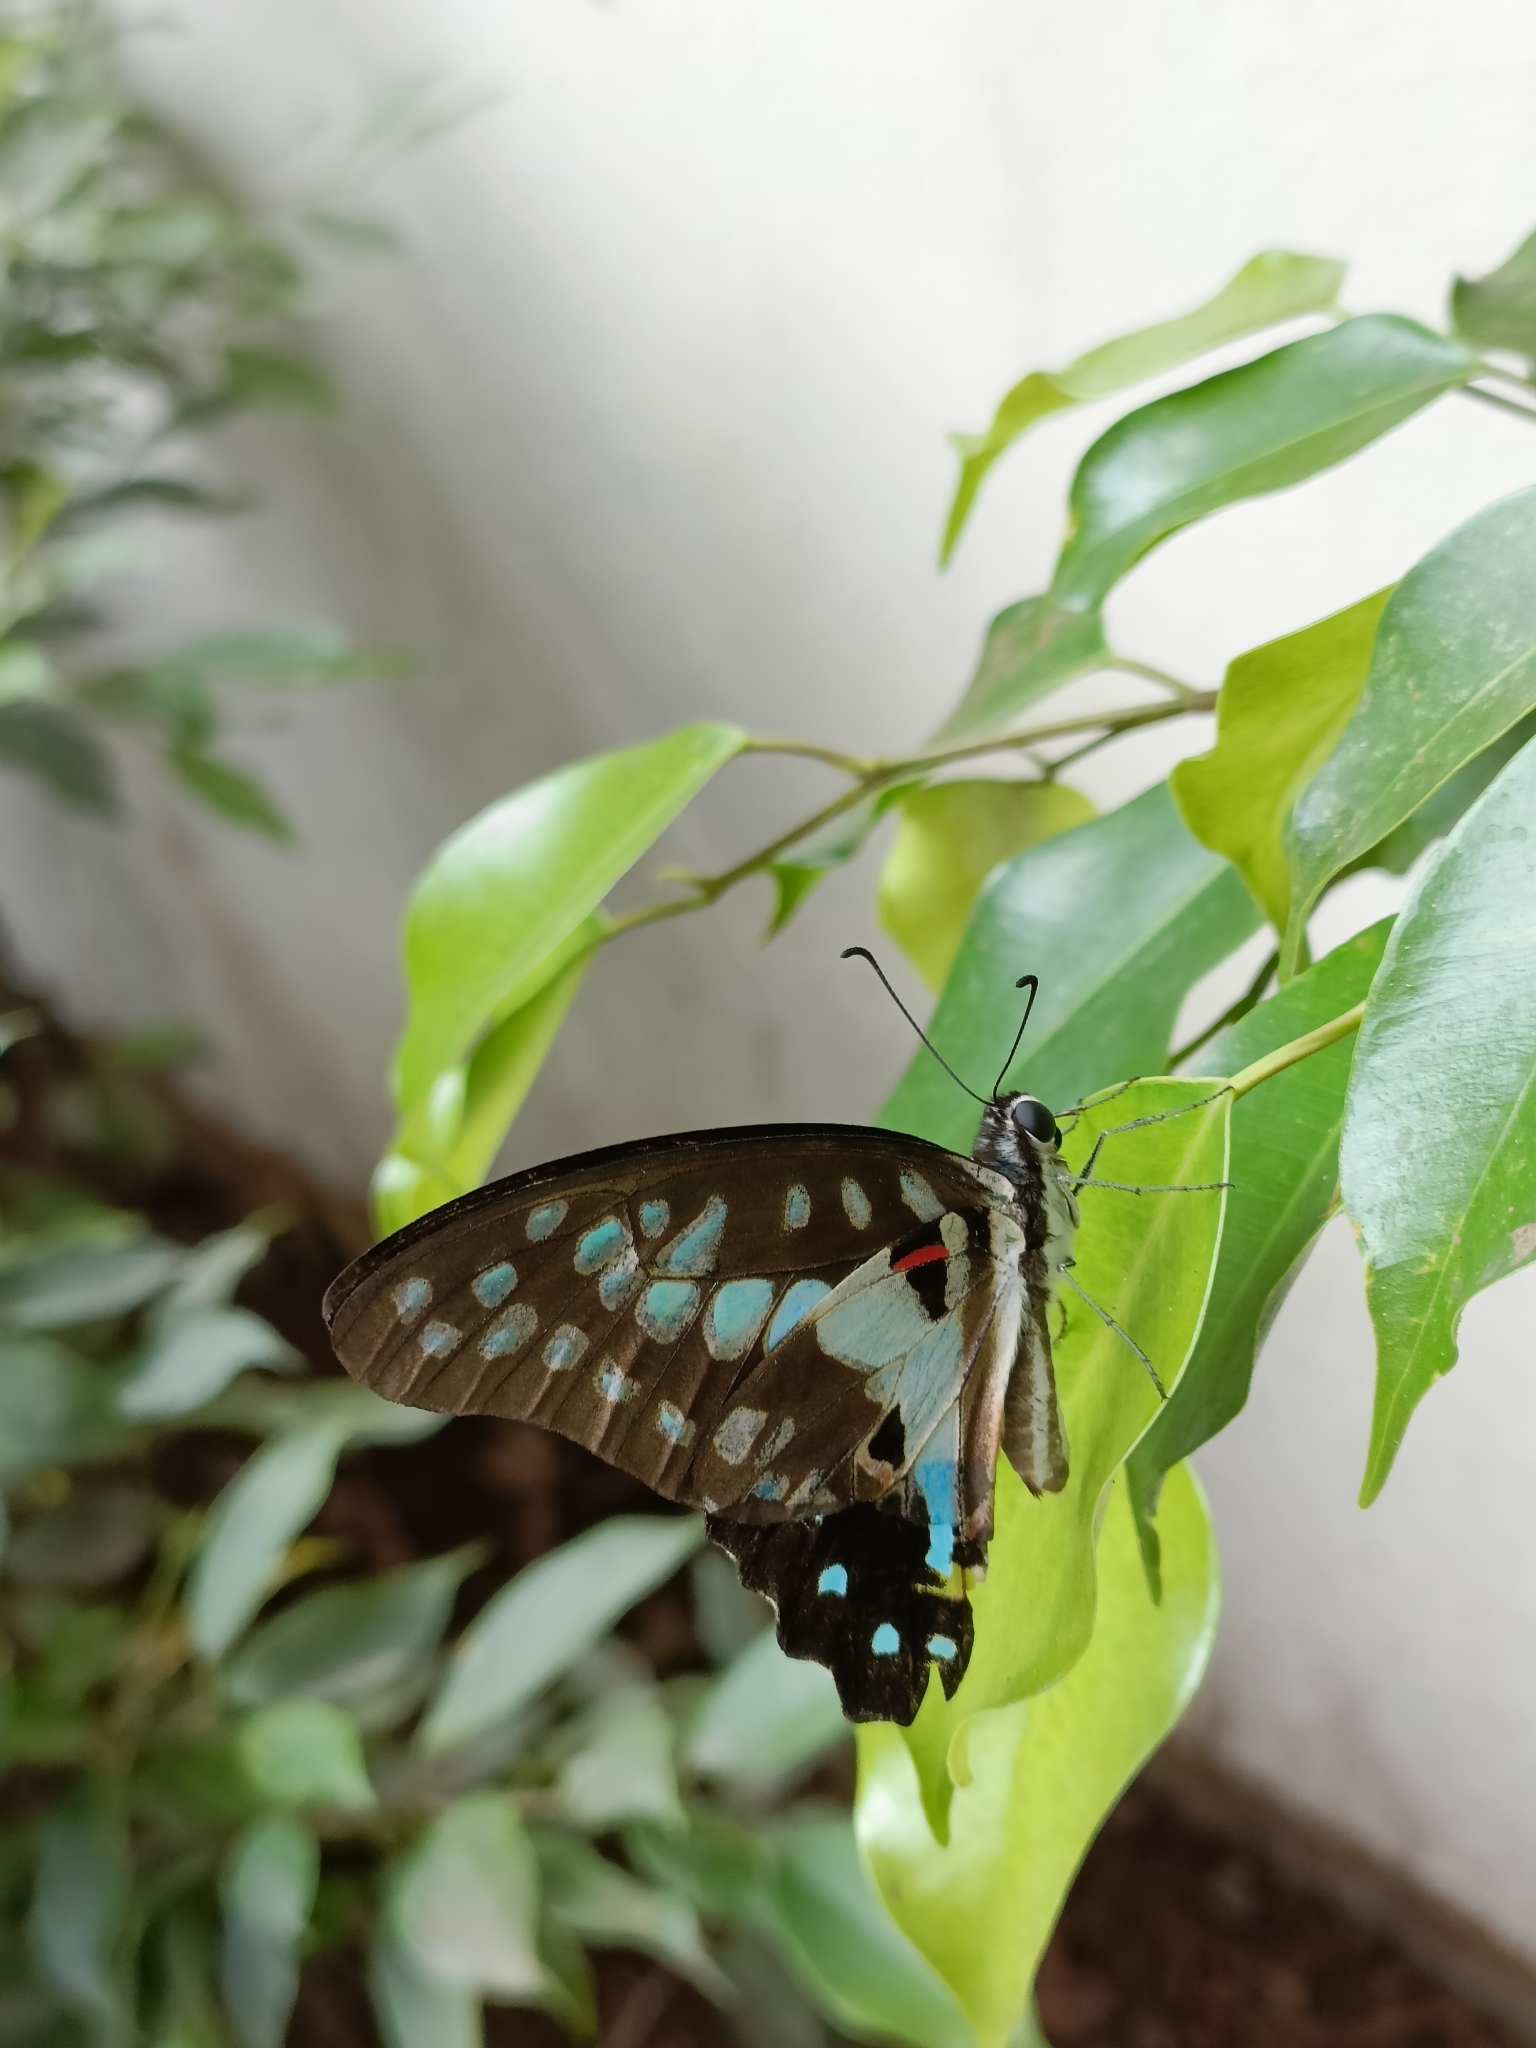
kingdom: Animalia
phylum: Arthropoda
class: Insecta
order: Lepidoptera
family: Papilionidae
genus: Graphium
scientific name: Graphium doson
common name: Common jay
